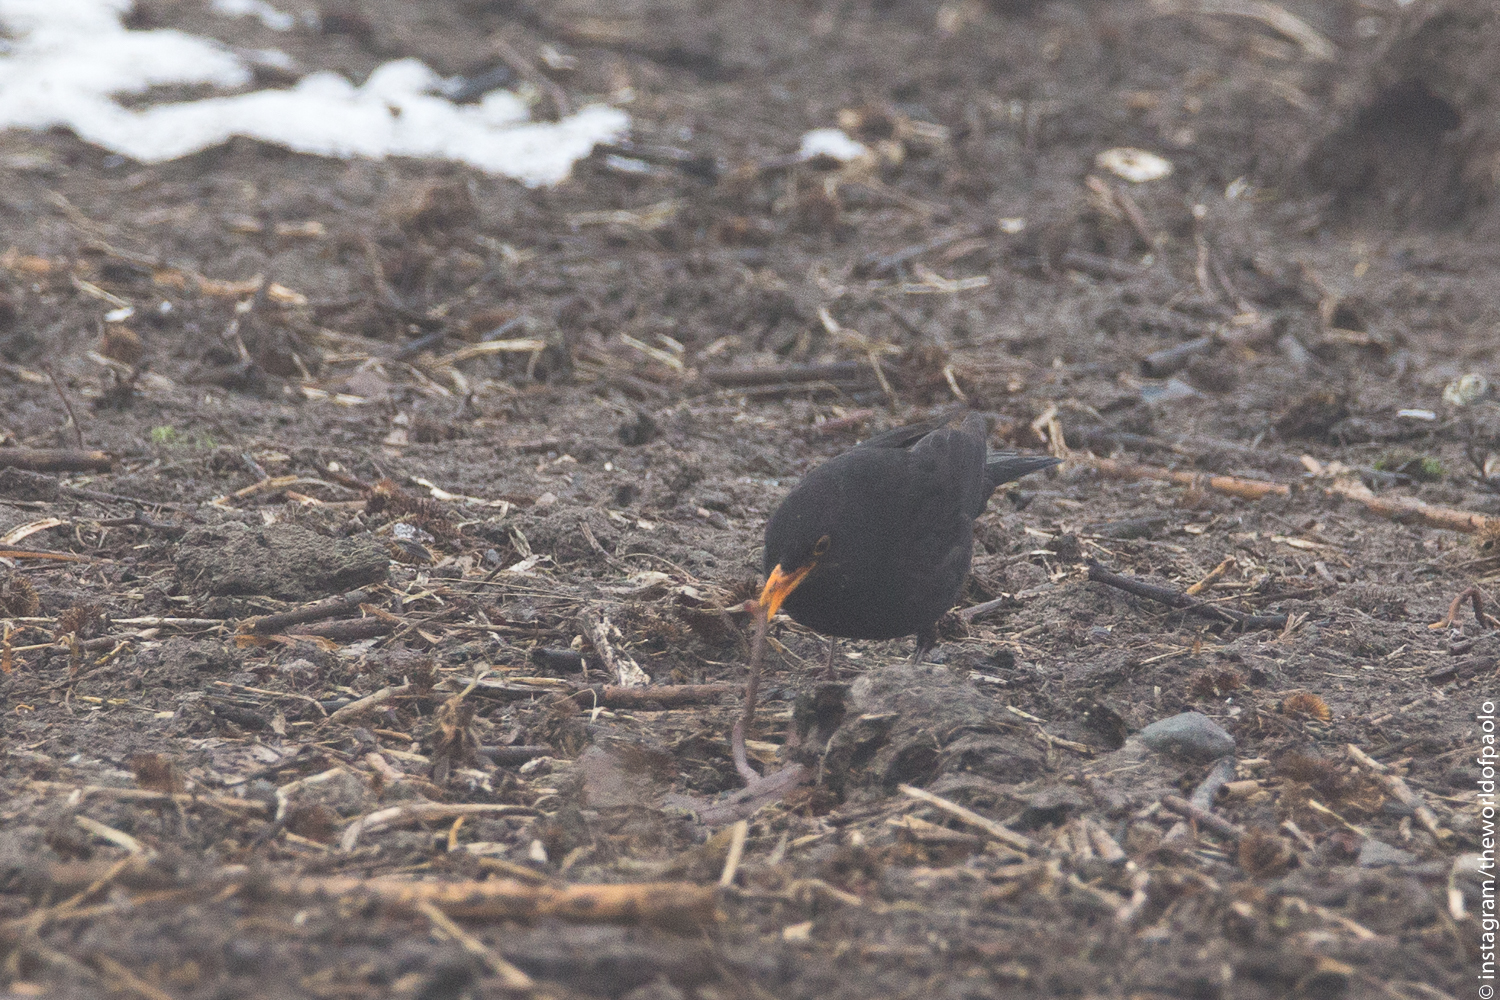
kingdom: Animalia
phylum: Chordata
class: Aves
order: Passeriformes
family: Turdidae
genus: Turdus
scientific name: Turdus merula
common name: Common blackbird
